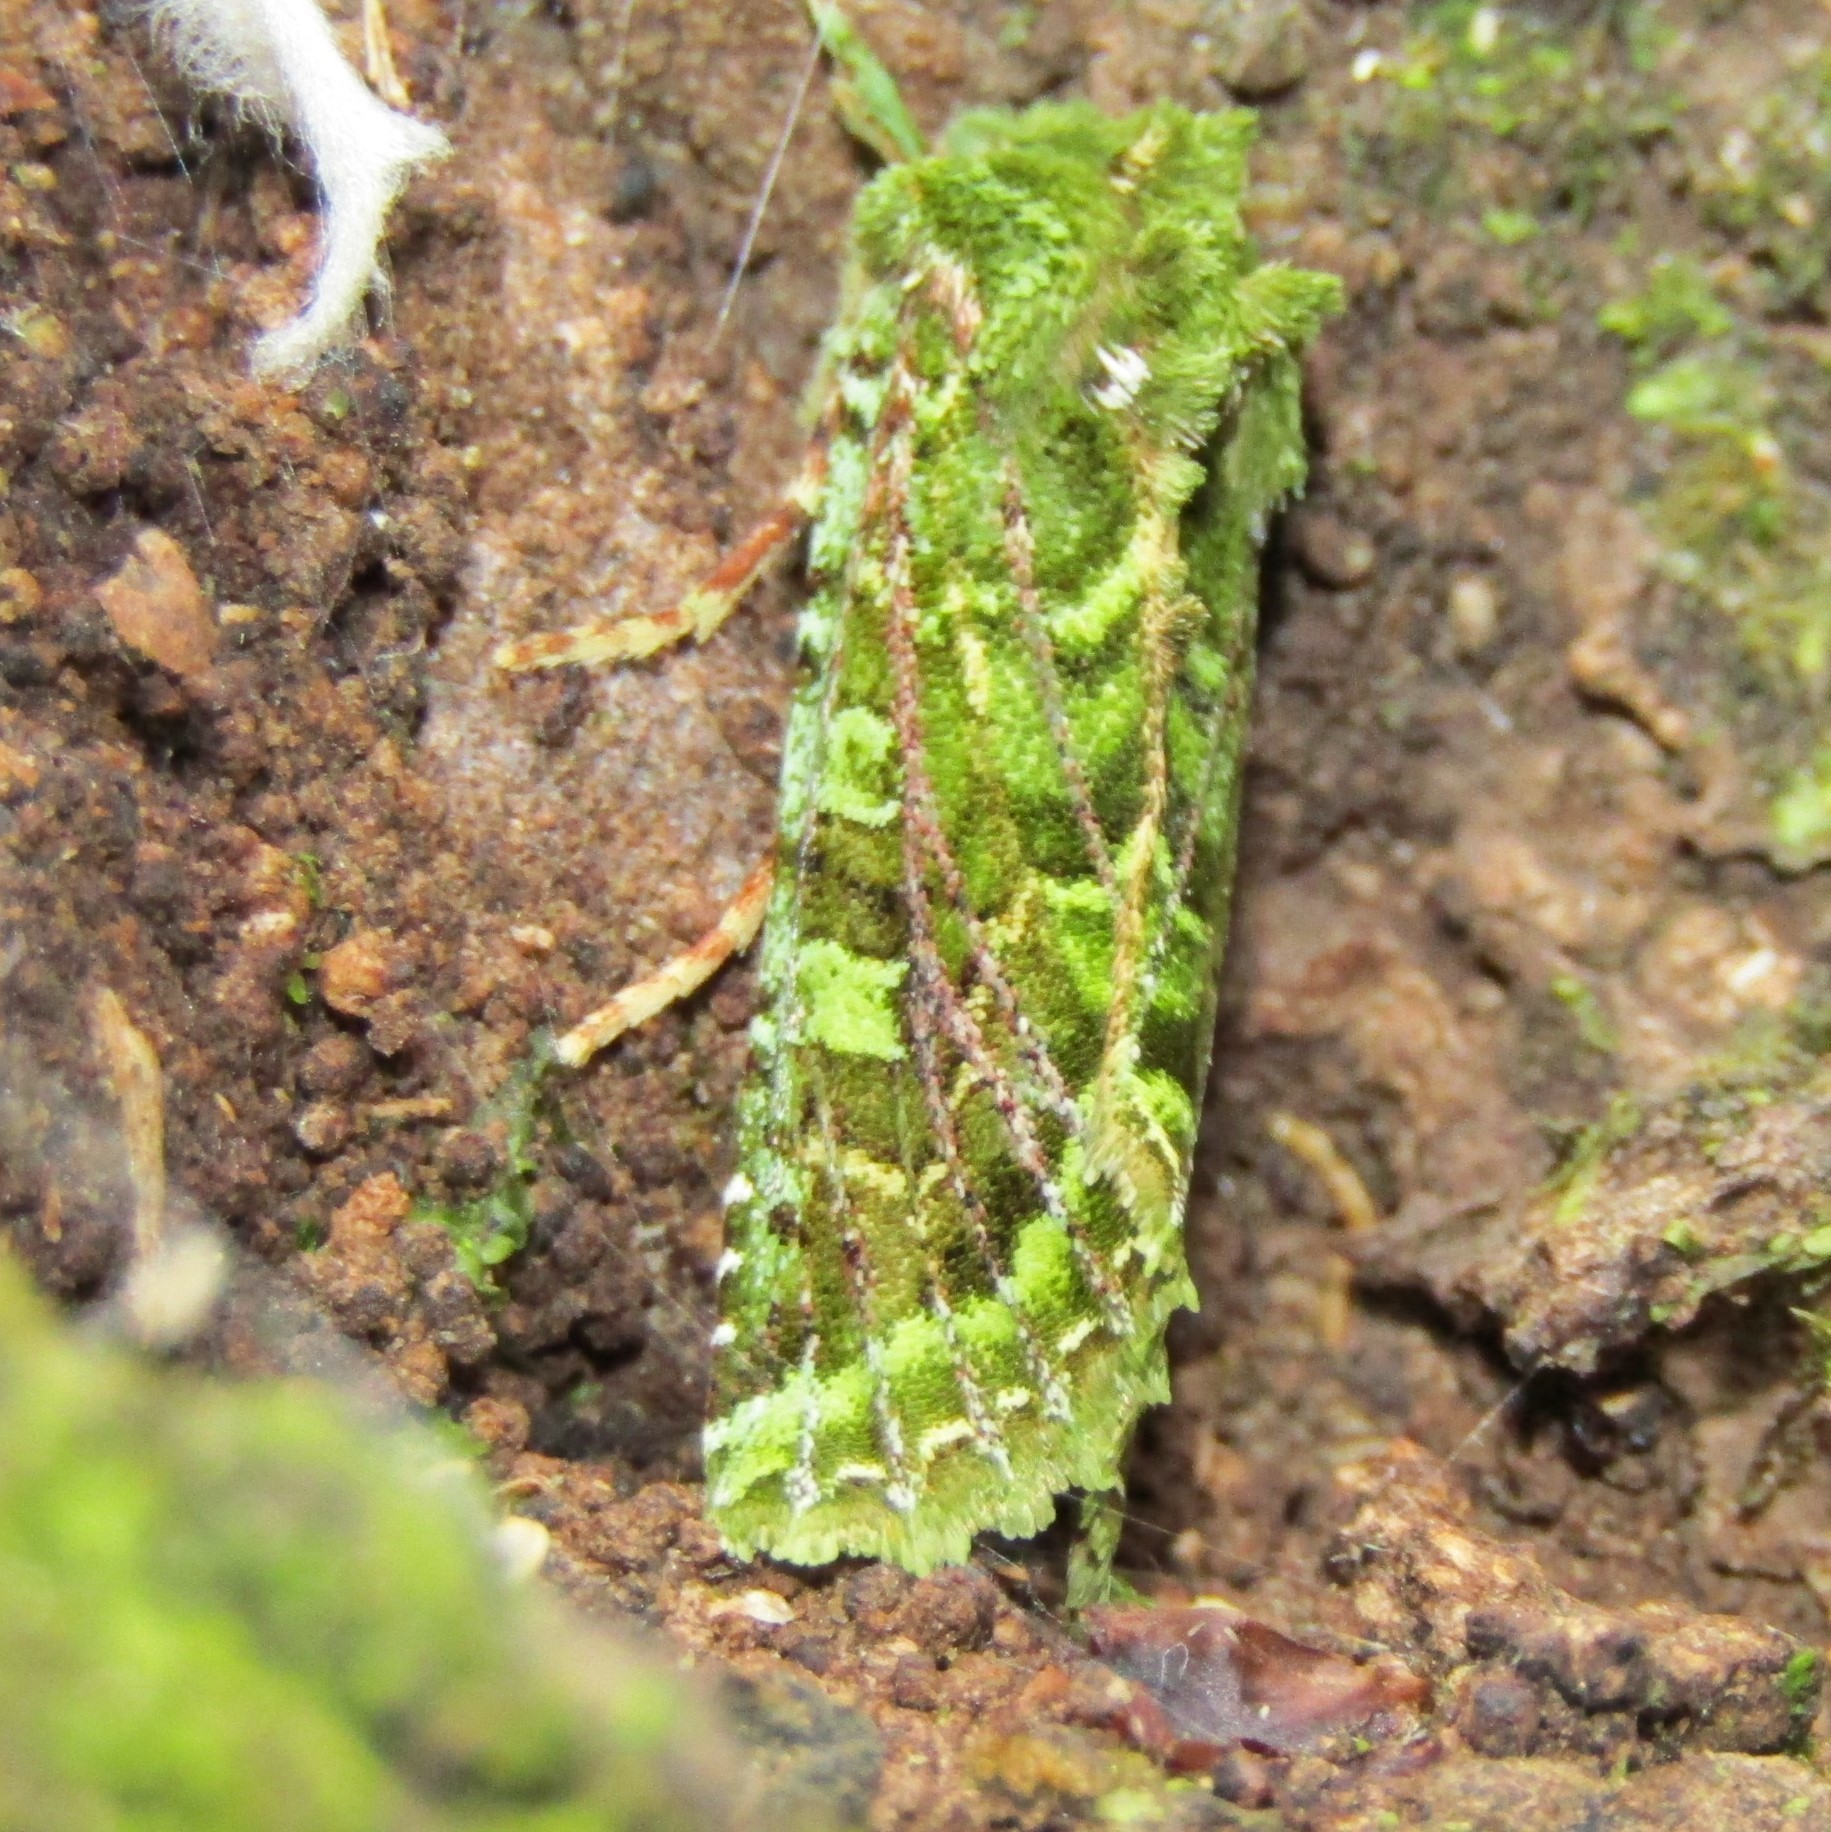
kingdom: Animalia
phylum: Arthropoda
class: Insecta
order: Lepidoptera
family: Noctuidae
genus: Feredayia
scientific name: Feredayia grammosa
